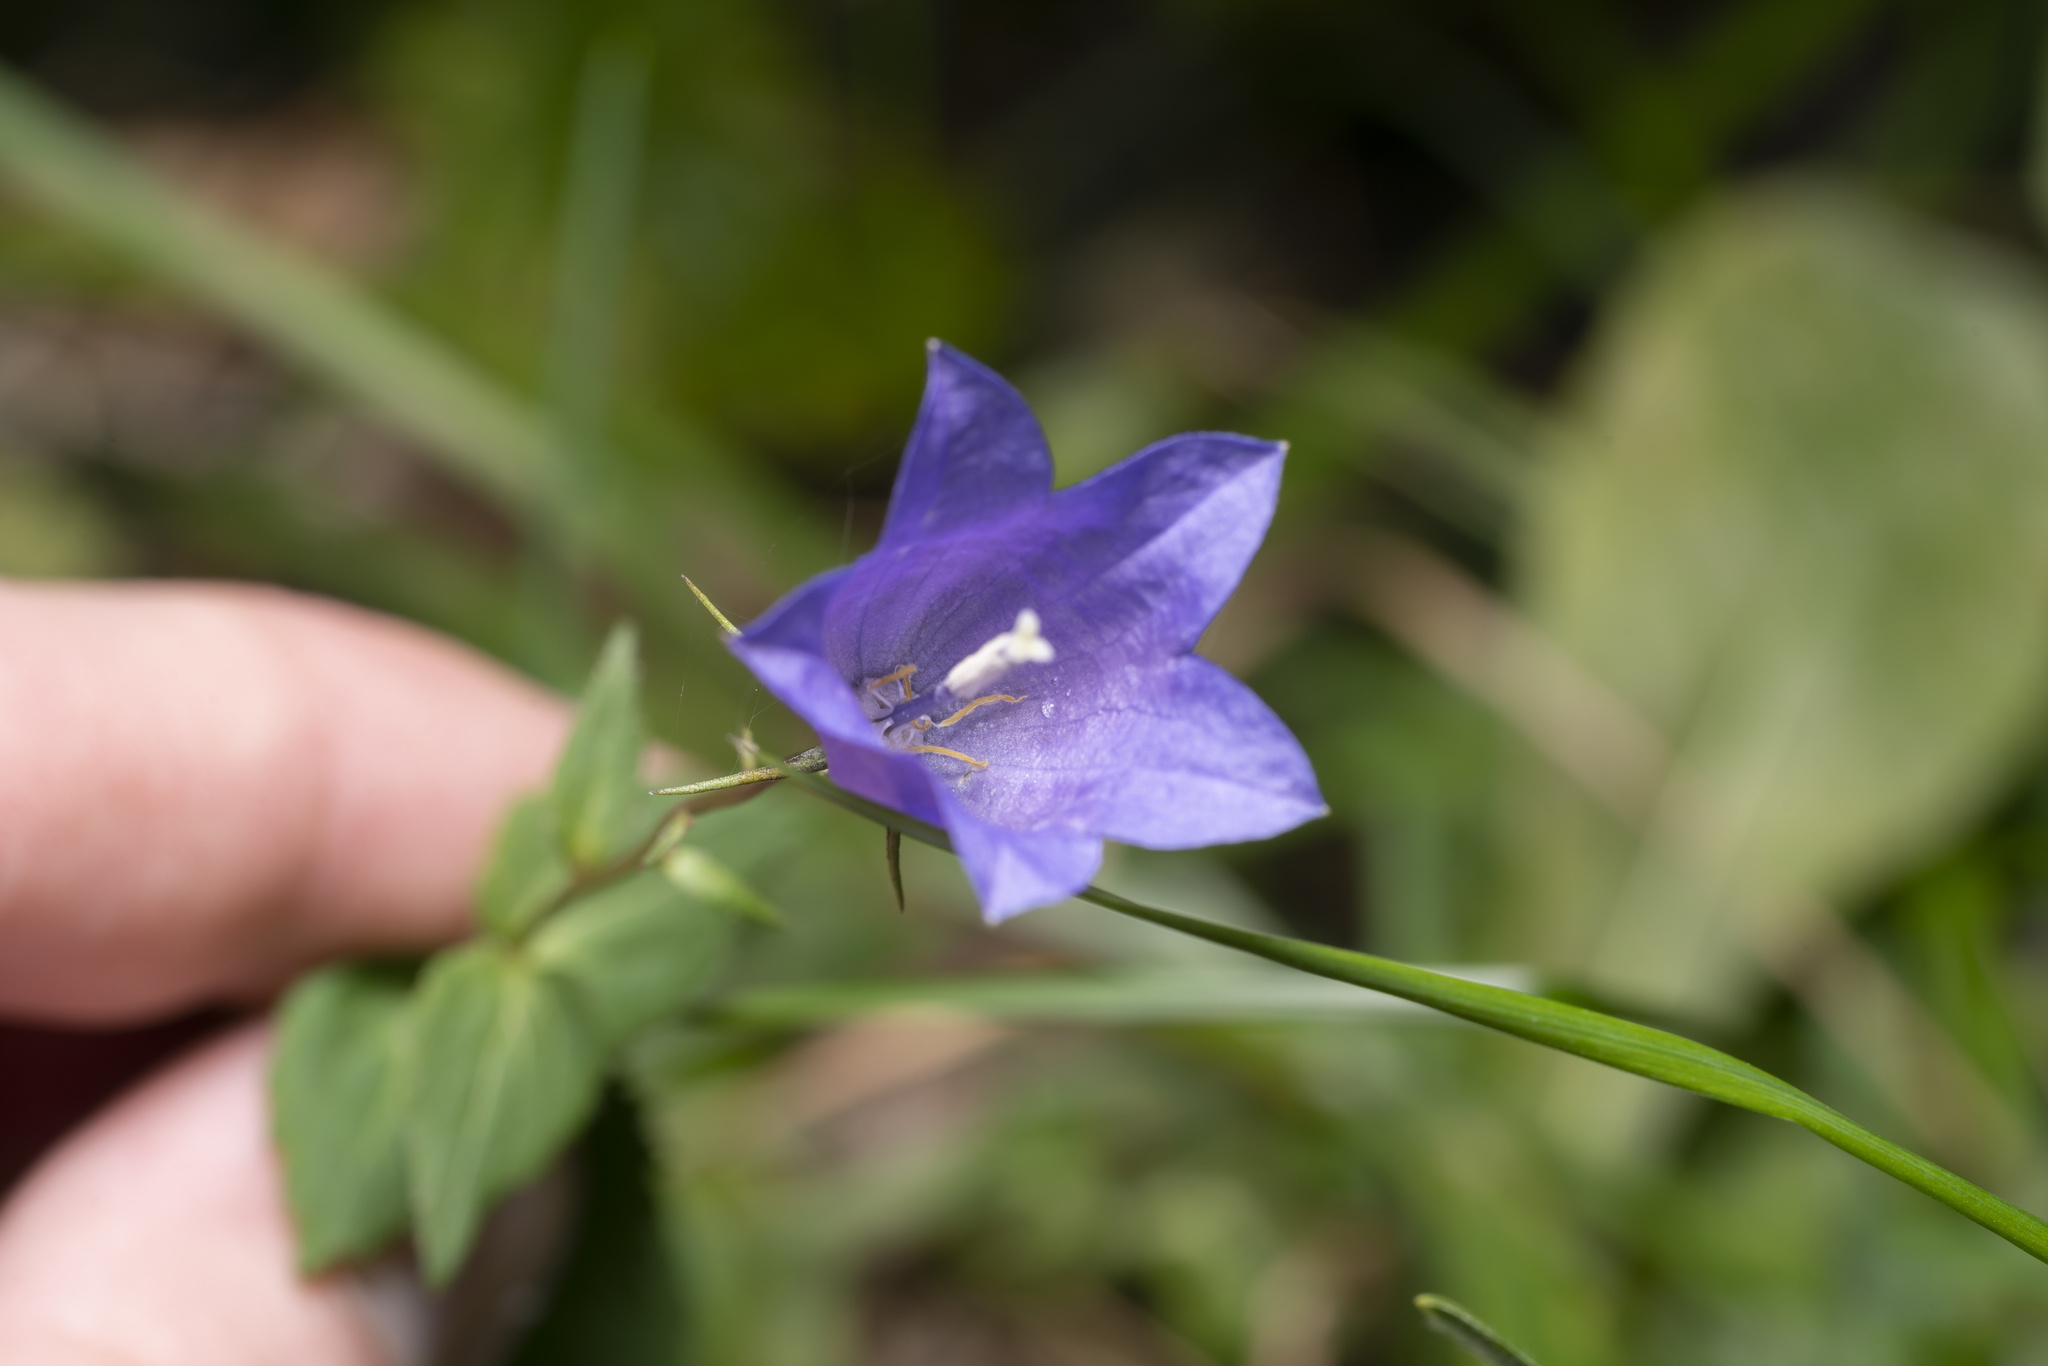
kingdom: Plantae
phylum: Tracheophyta
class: Magnoliopsida
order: Asterales
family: Campanulaceae
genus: Campanula
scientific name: Campanula rhomboidalis
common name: Broad-leaved harebell
